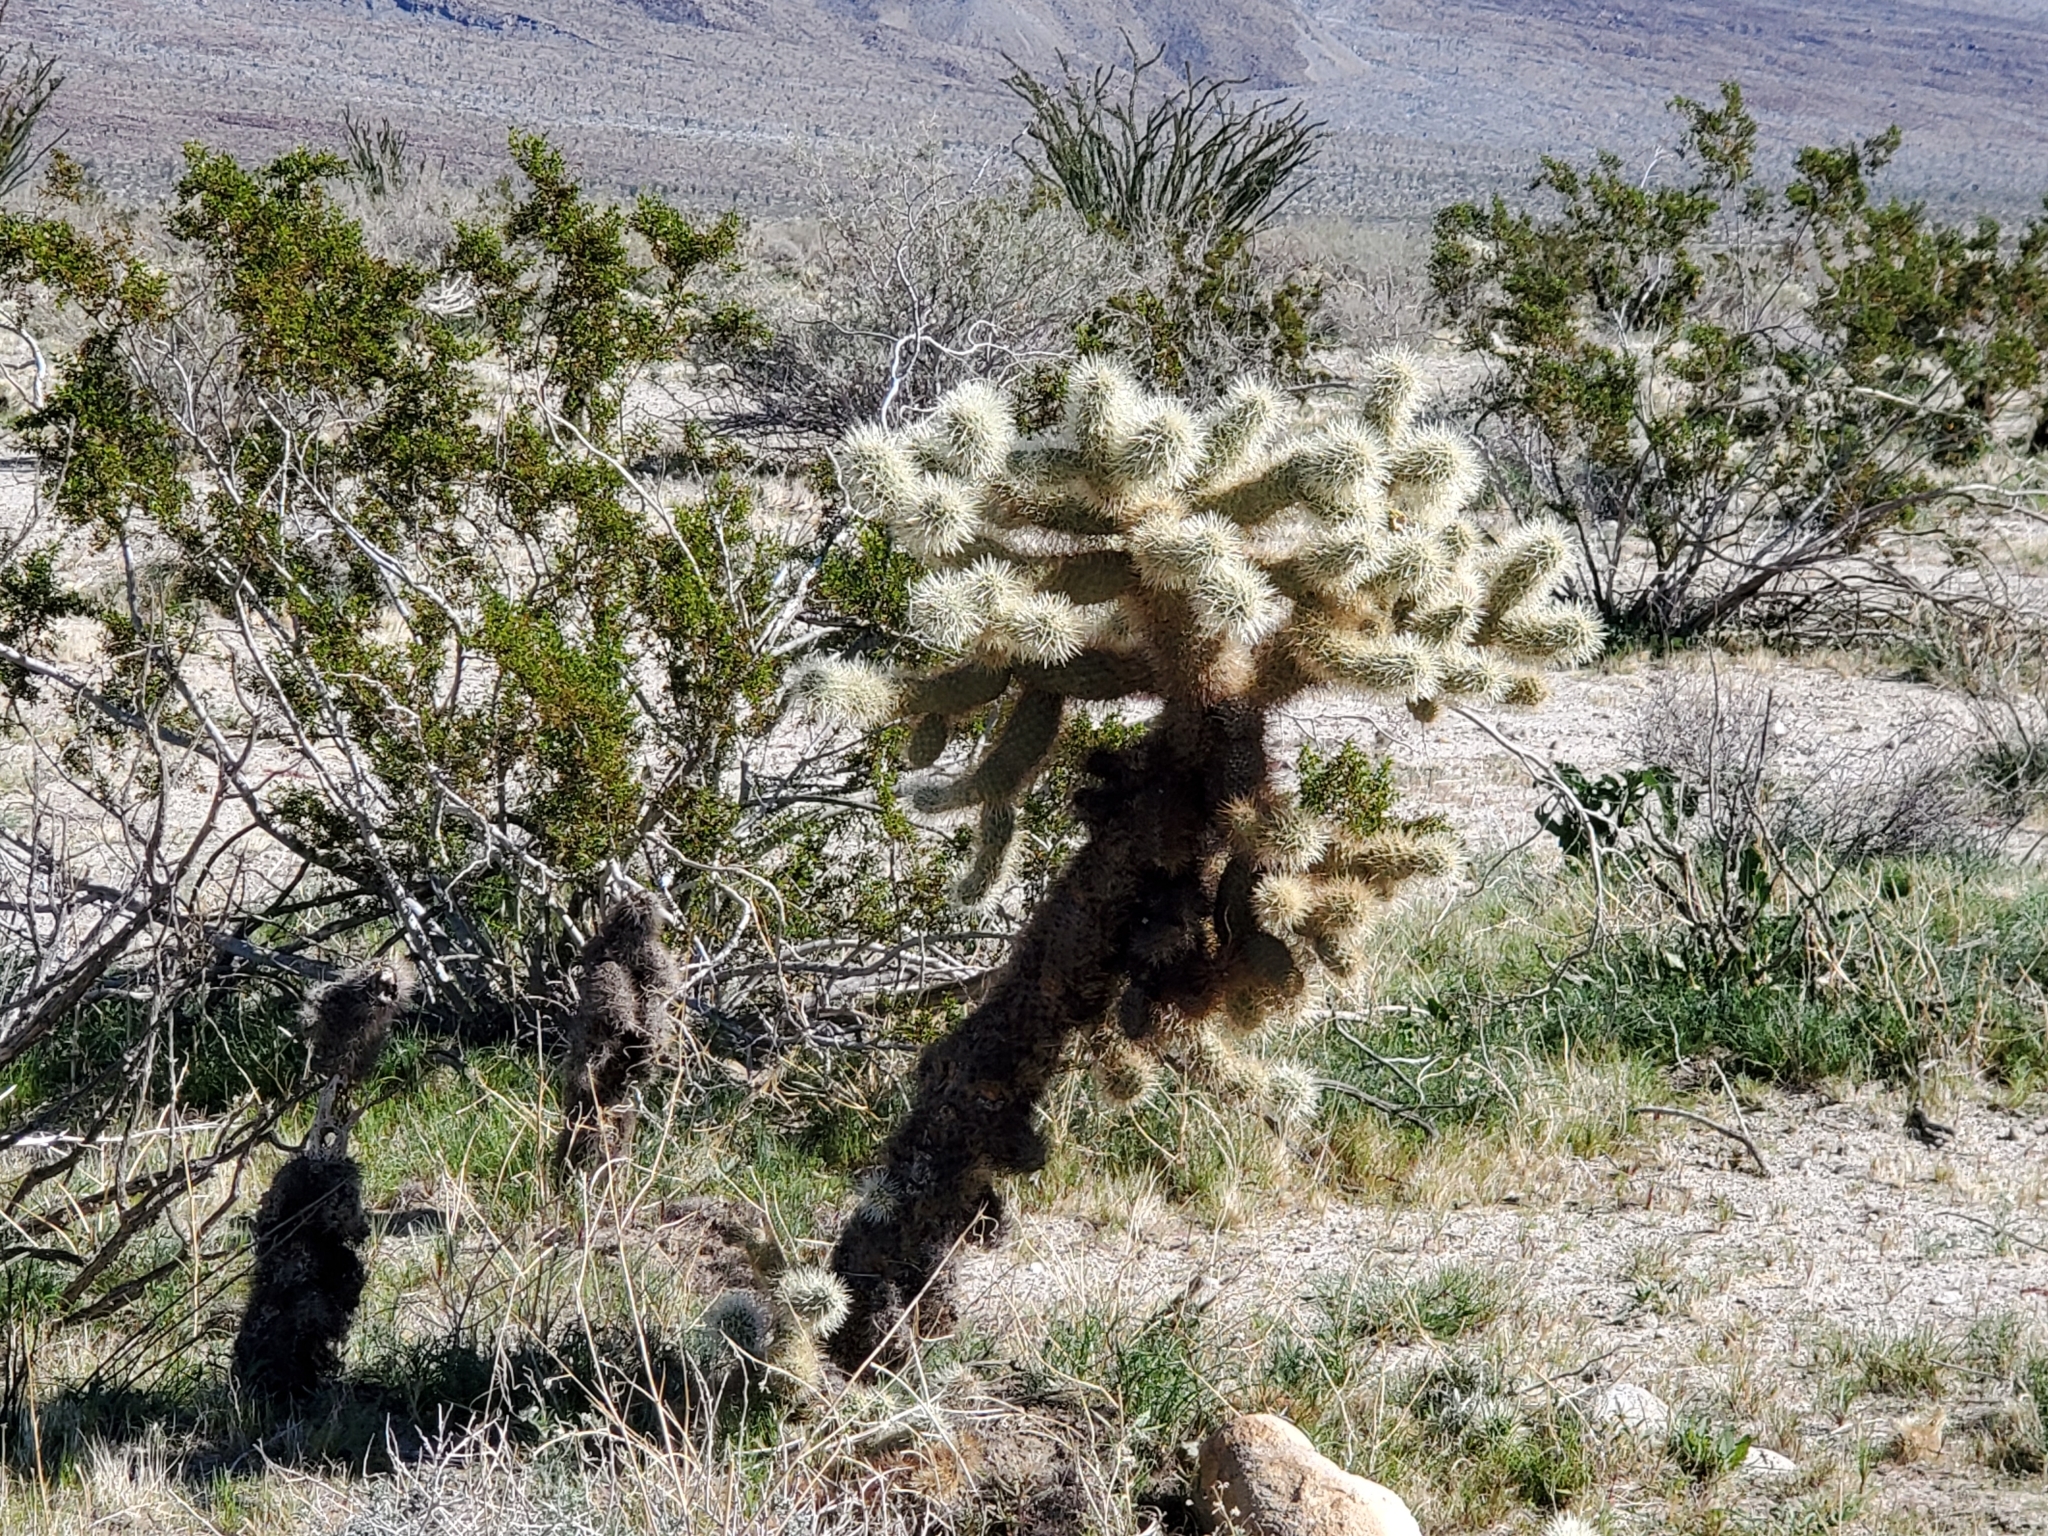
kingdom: Plantae
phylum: Tracheophyta
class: Magnoliopsida
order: Caryophyllales
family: Cactaceae
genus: Cylindropuntia
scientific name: Cylindropuntia fosbergii
